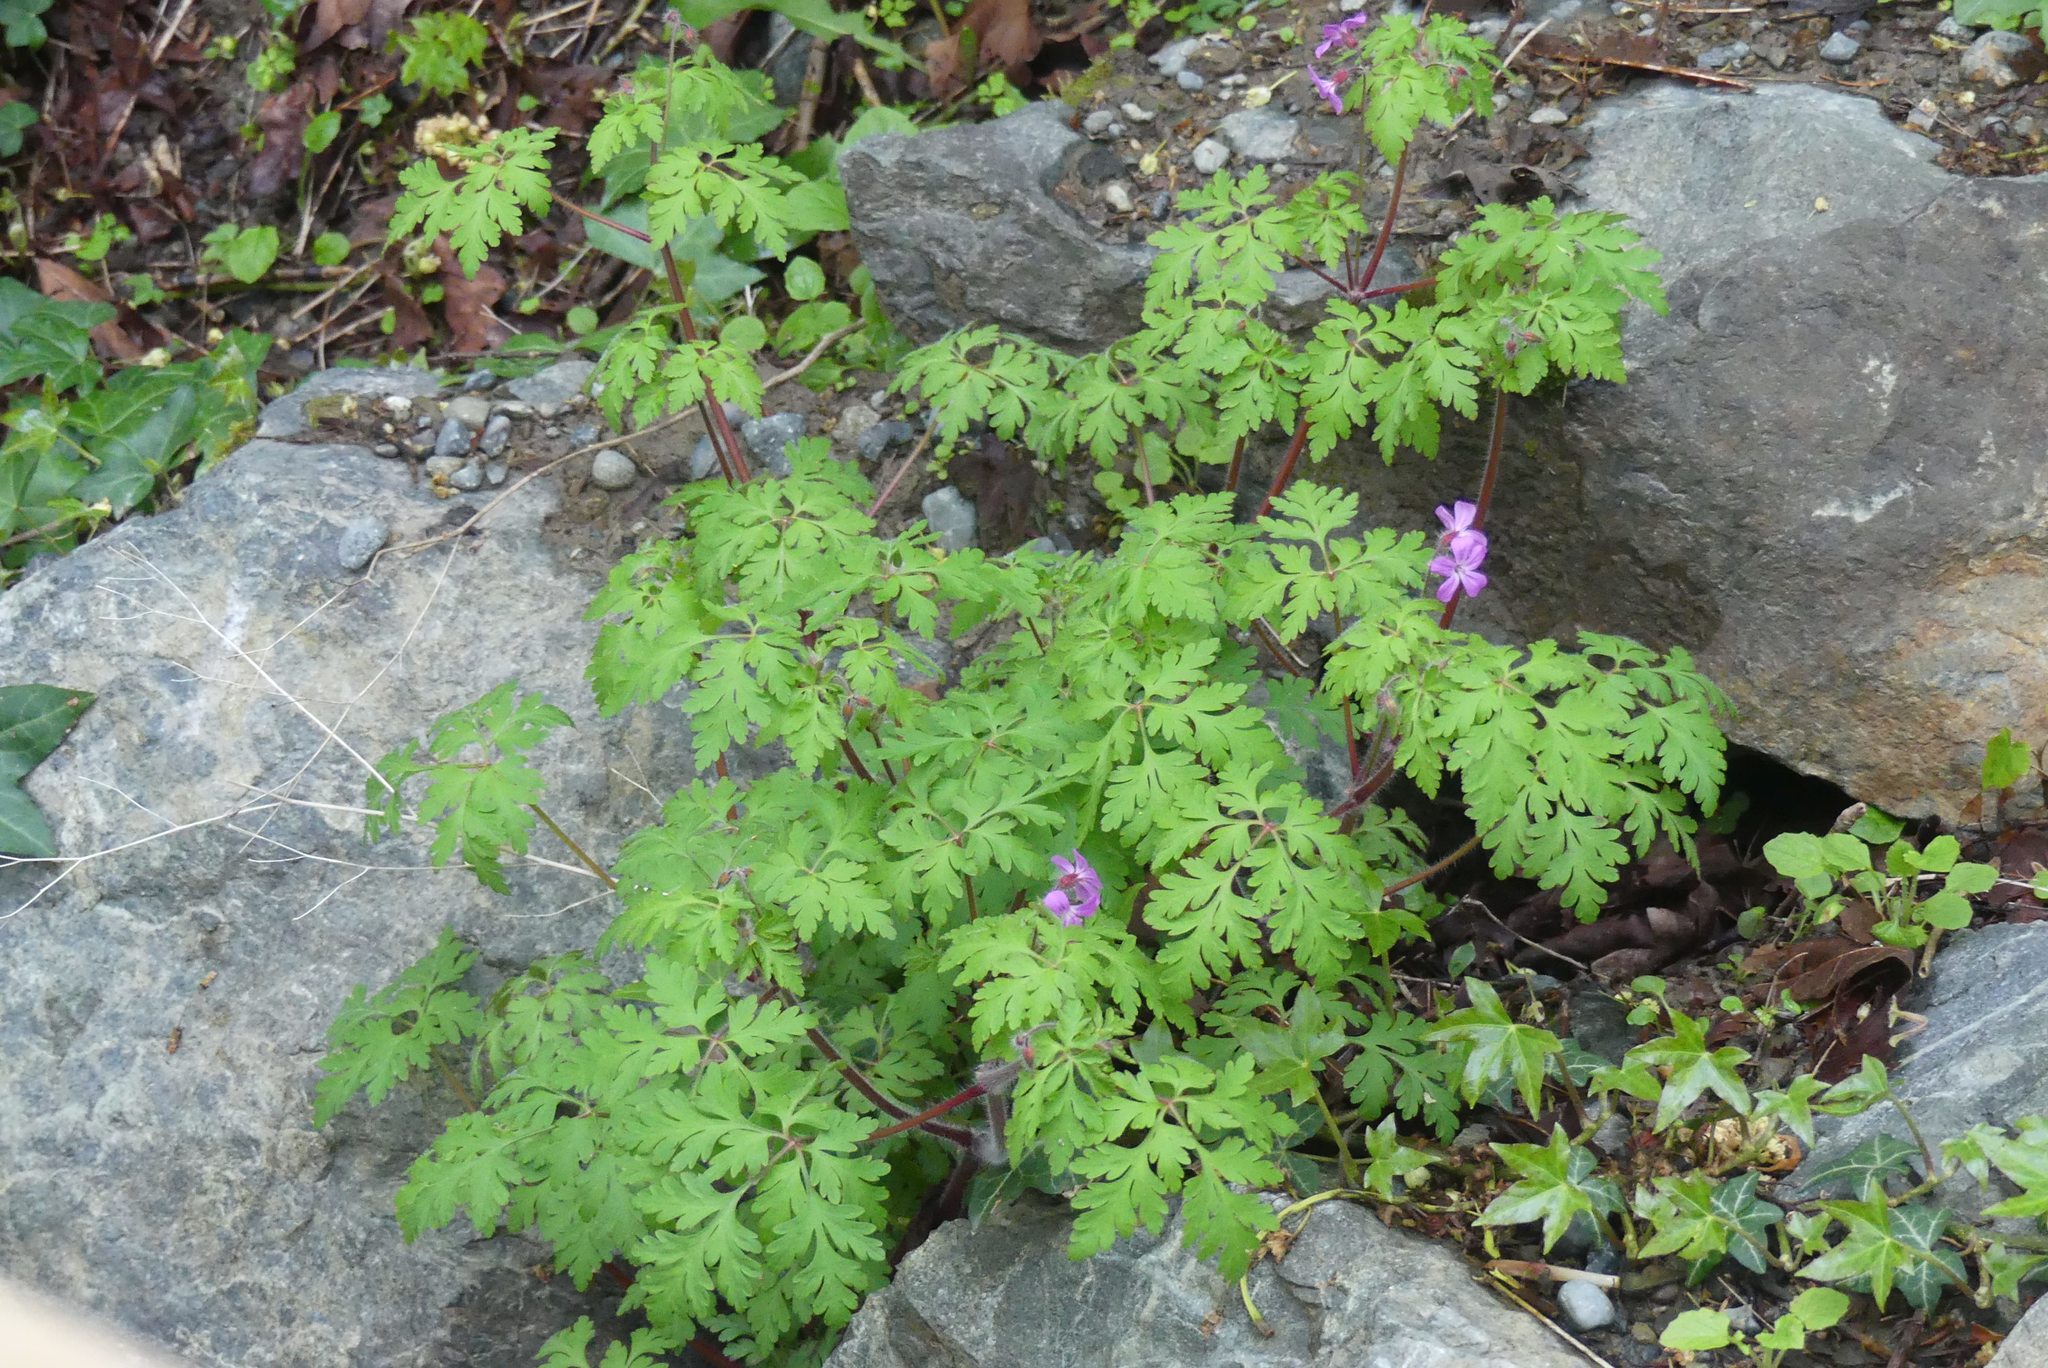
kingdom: Plantae
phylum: Tracheophyta
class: Magnoliopsida
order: Geraniales
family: Geraniaceae
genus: Geranium
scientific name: Geranium robertianum
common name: Herb-robert
